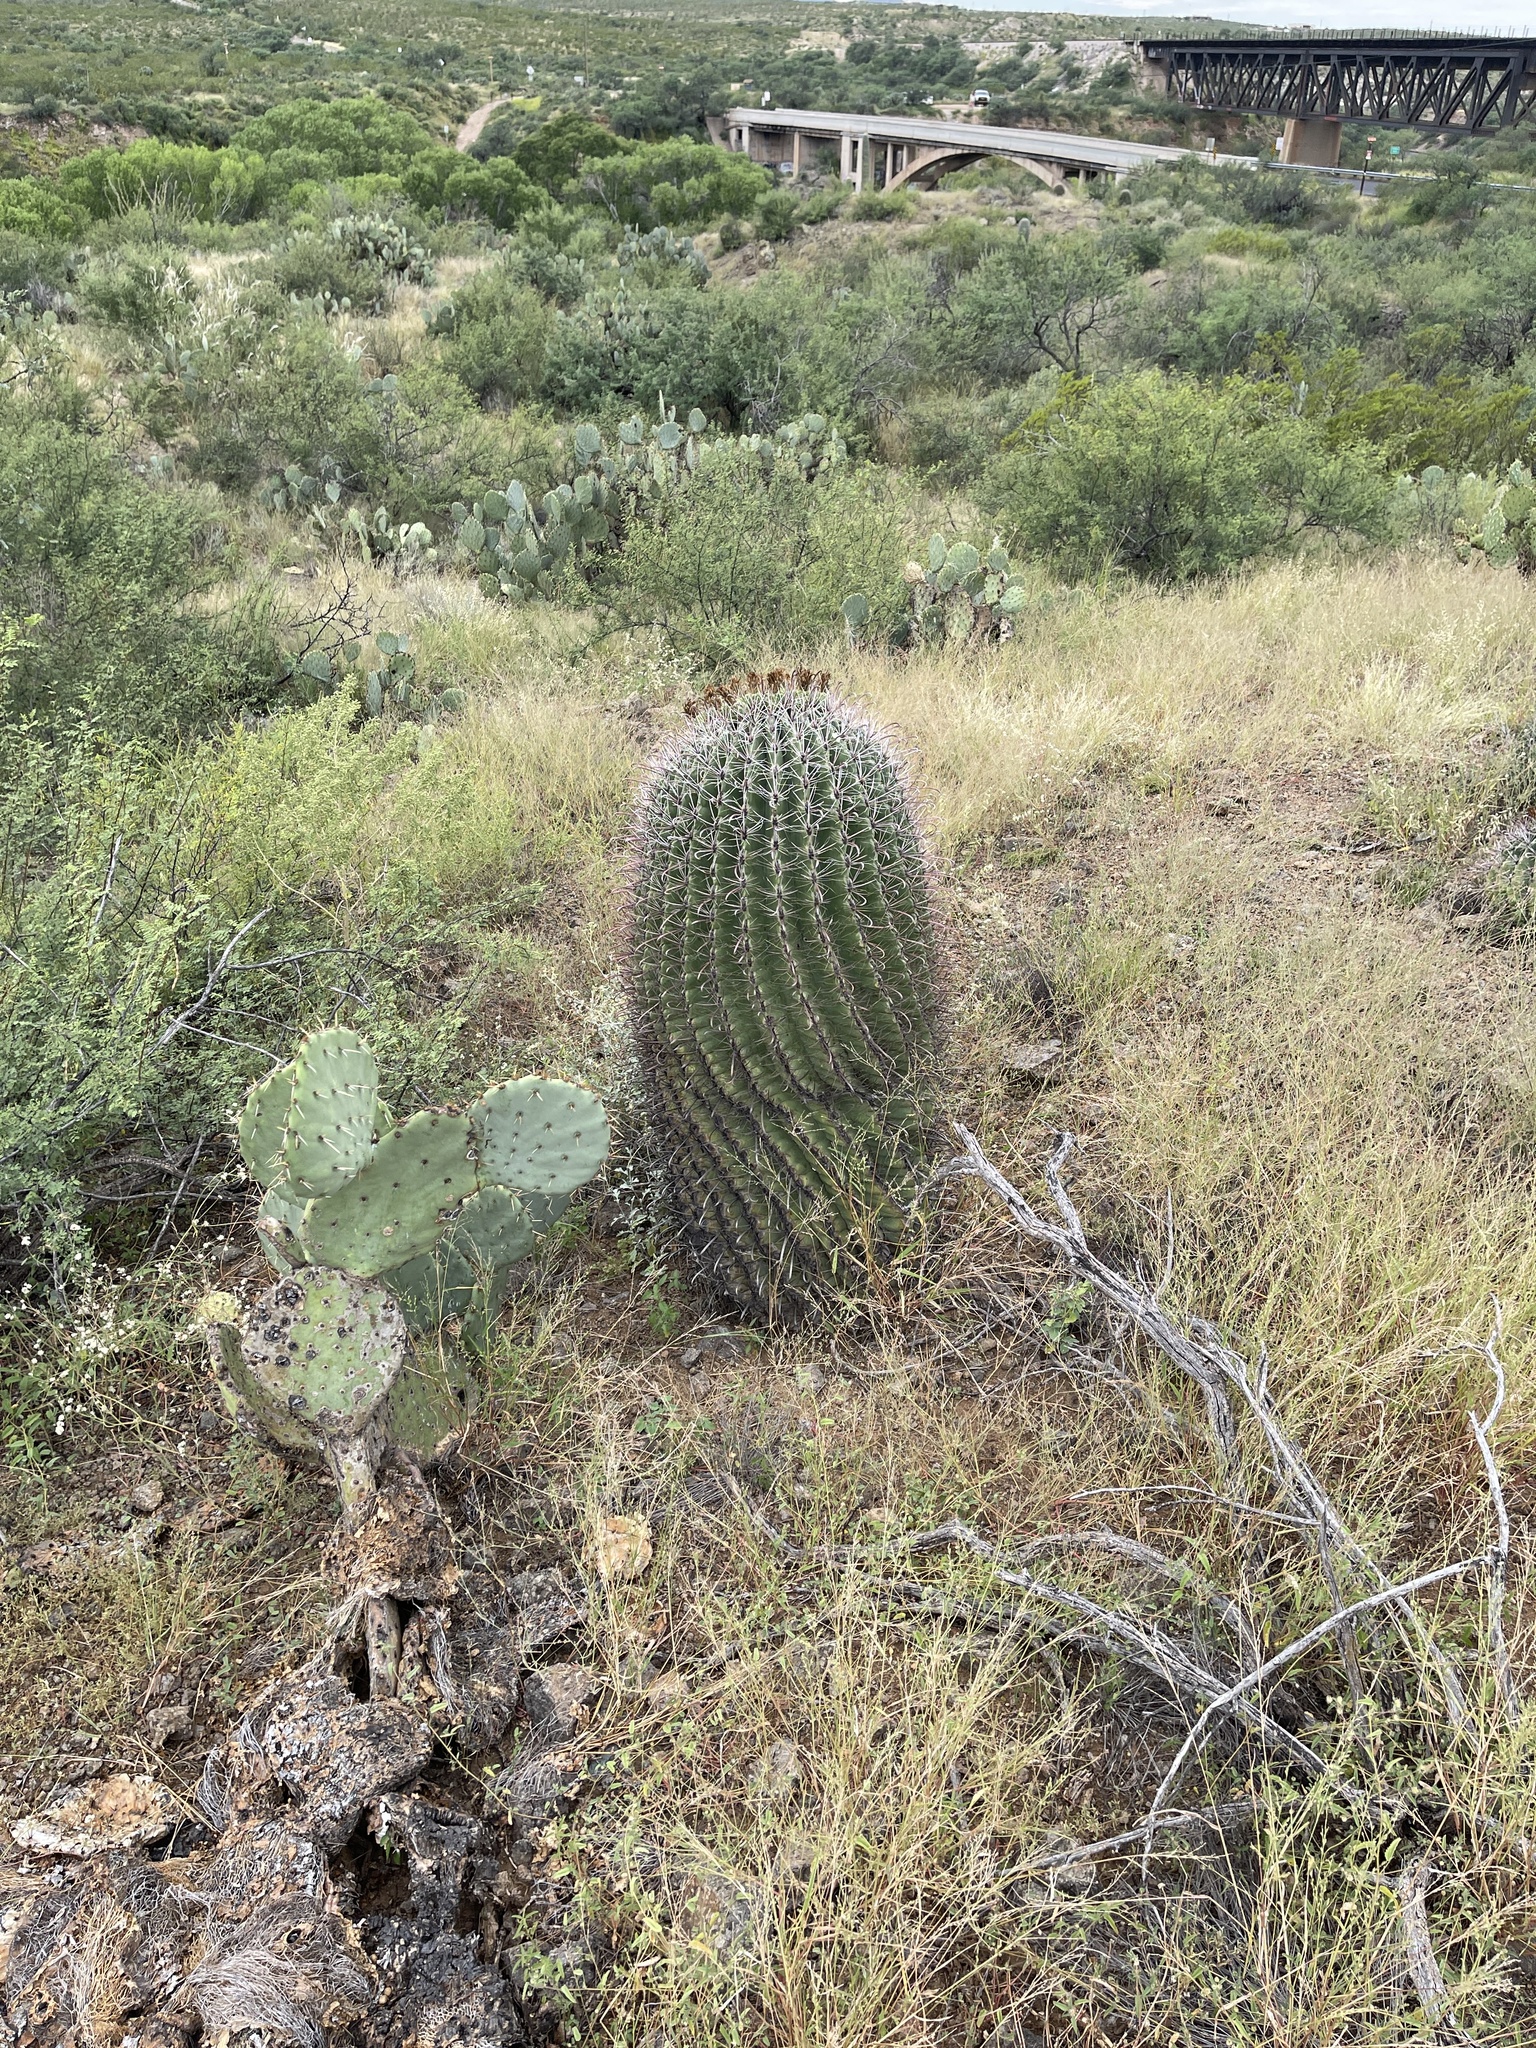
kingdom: Plantae
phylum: Tracheophyta
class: Magnoliopsida
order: Caryophyllales
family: Cactaceae
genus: Ferocactus
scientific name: Ferocactus wislizeni
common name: Candy barrel cactus
